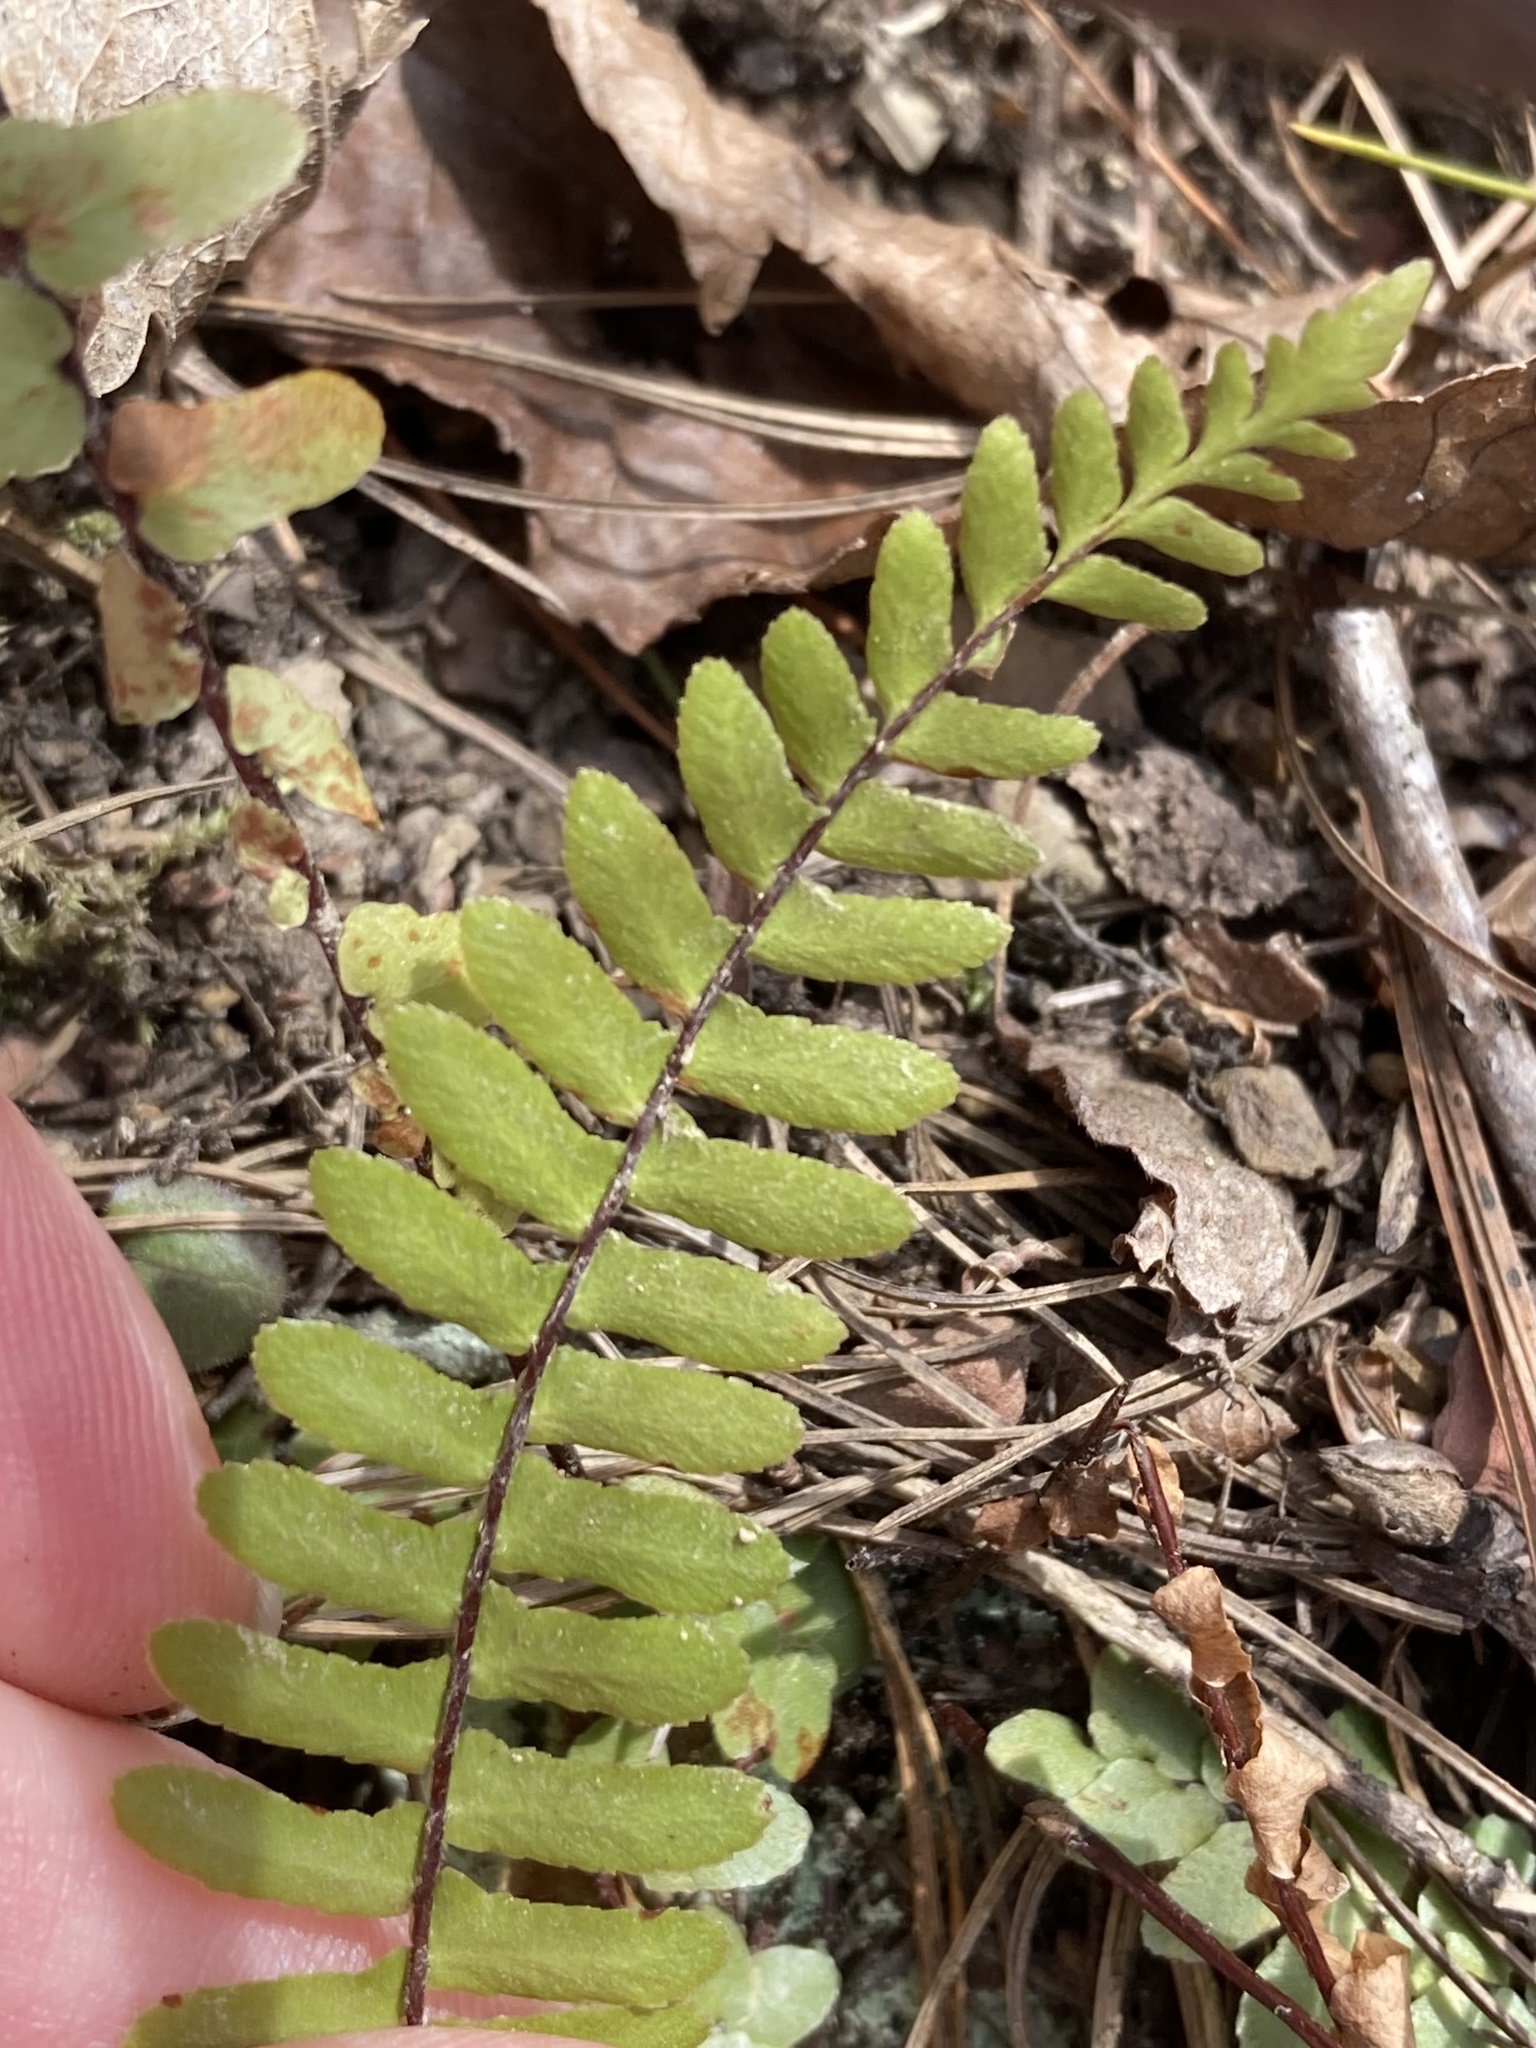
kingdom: Plantae
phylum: Tracheophyta
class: Polypodiopsida
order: Polypodiales
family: Aspleniaceae
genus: Asplenium
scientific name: Asplenium platyneuron
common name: Ebony spleenwort
